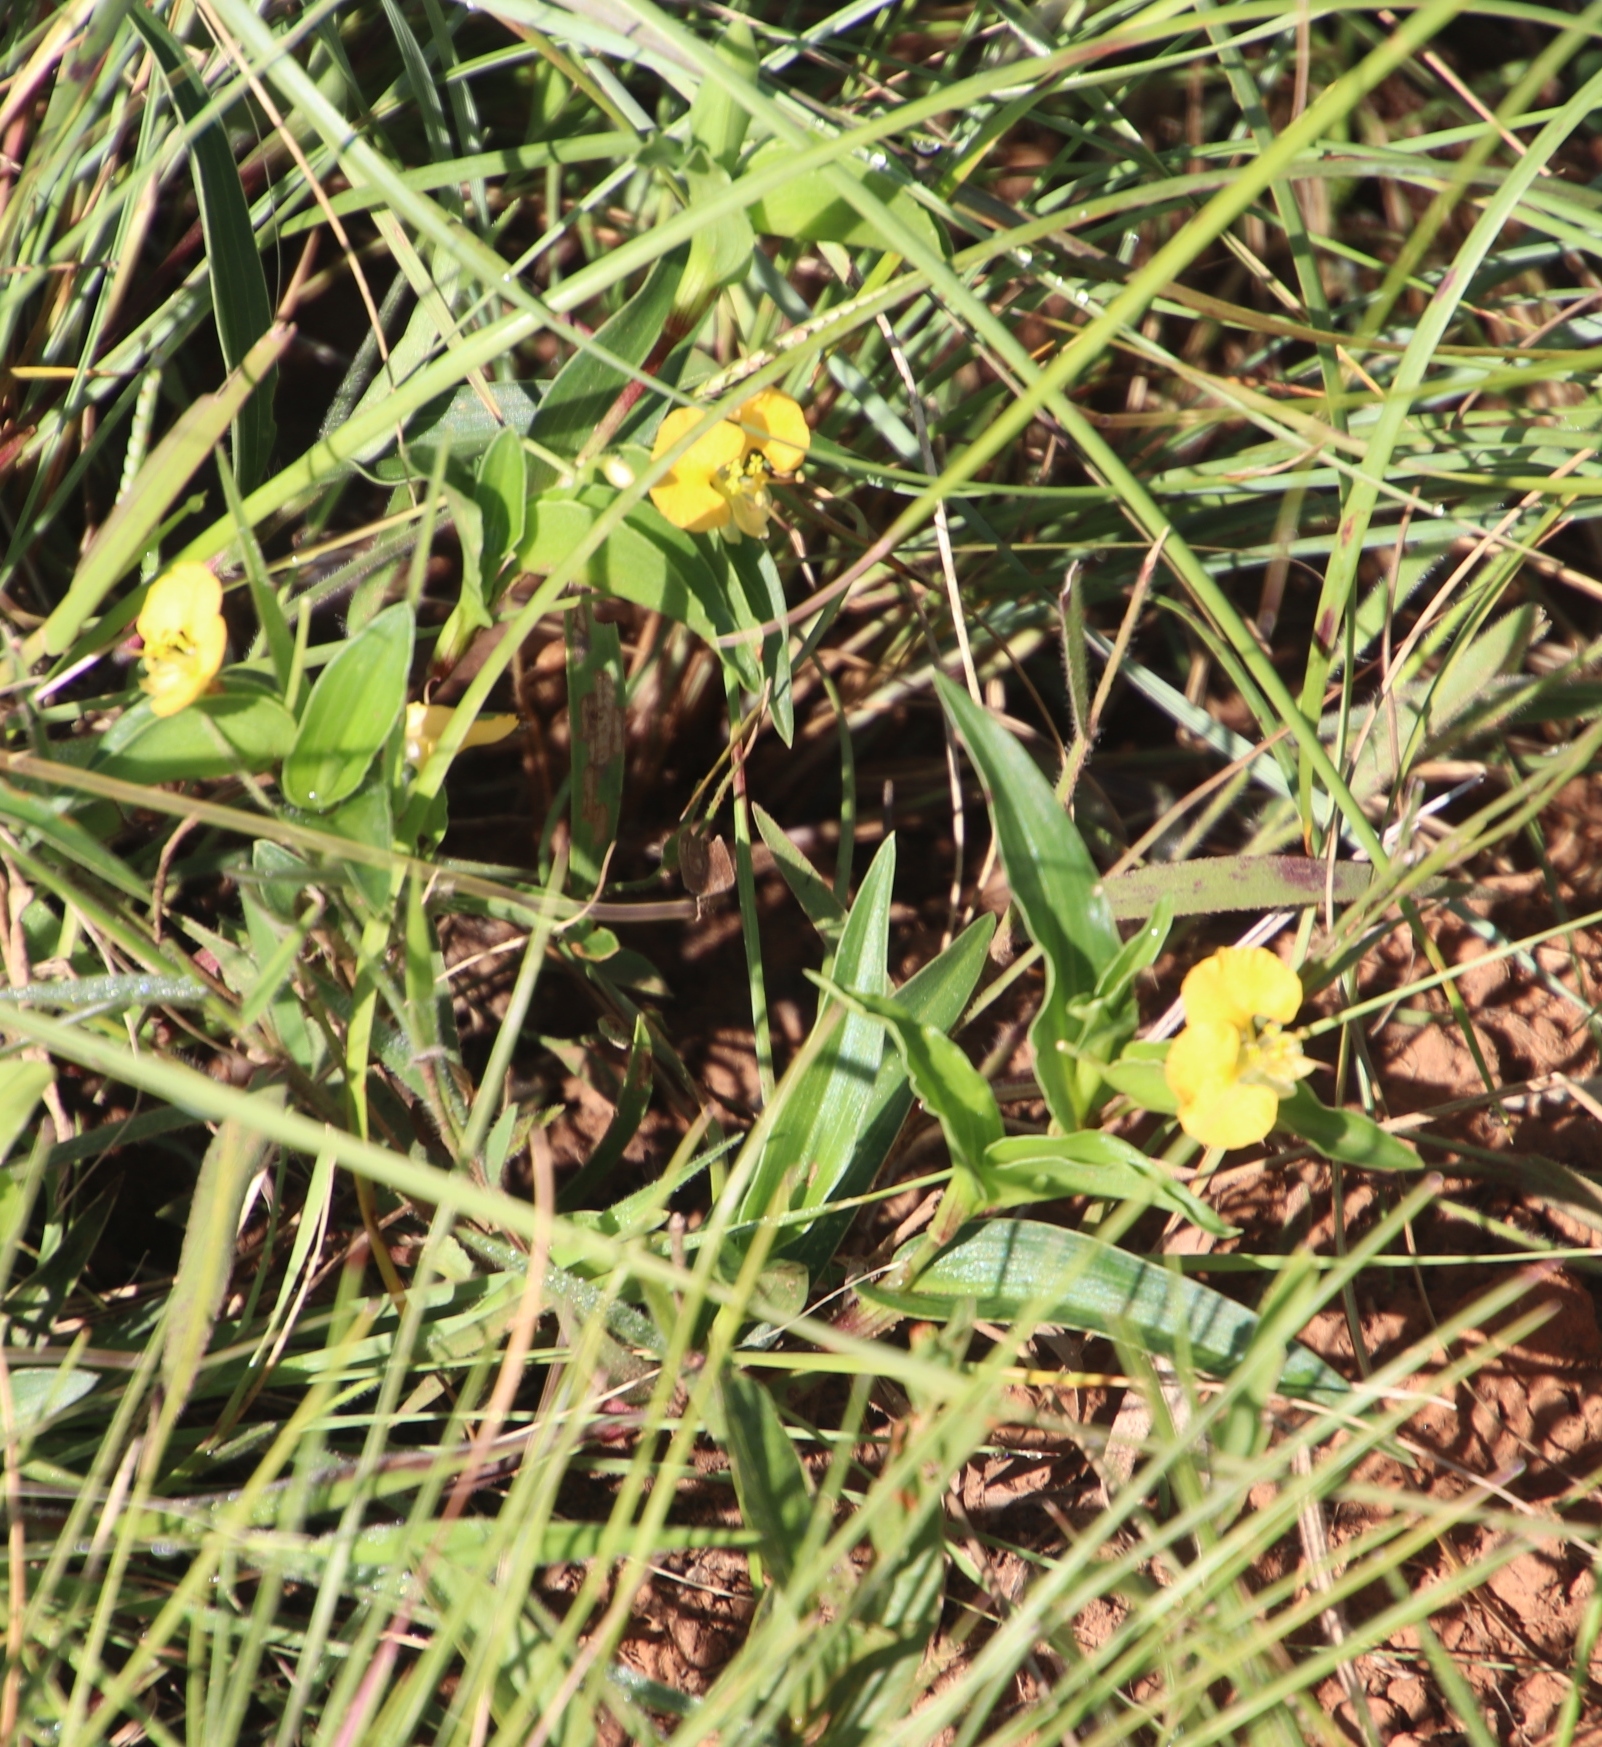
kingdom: Plantae
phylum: Tracheophyta
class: Liliopsida
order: Commelinales
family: Commelinaceae
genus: Commelina
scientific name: Commelina africana
